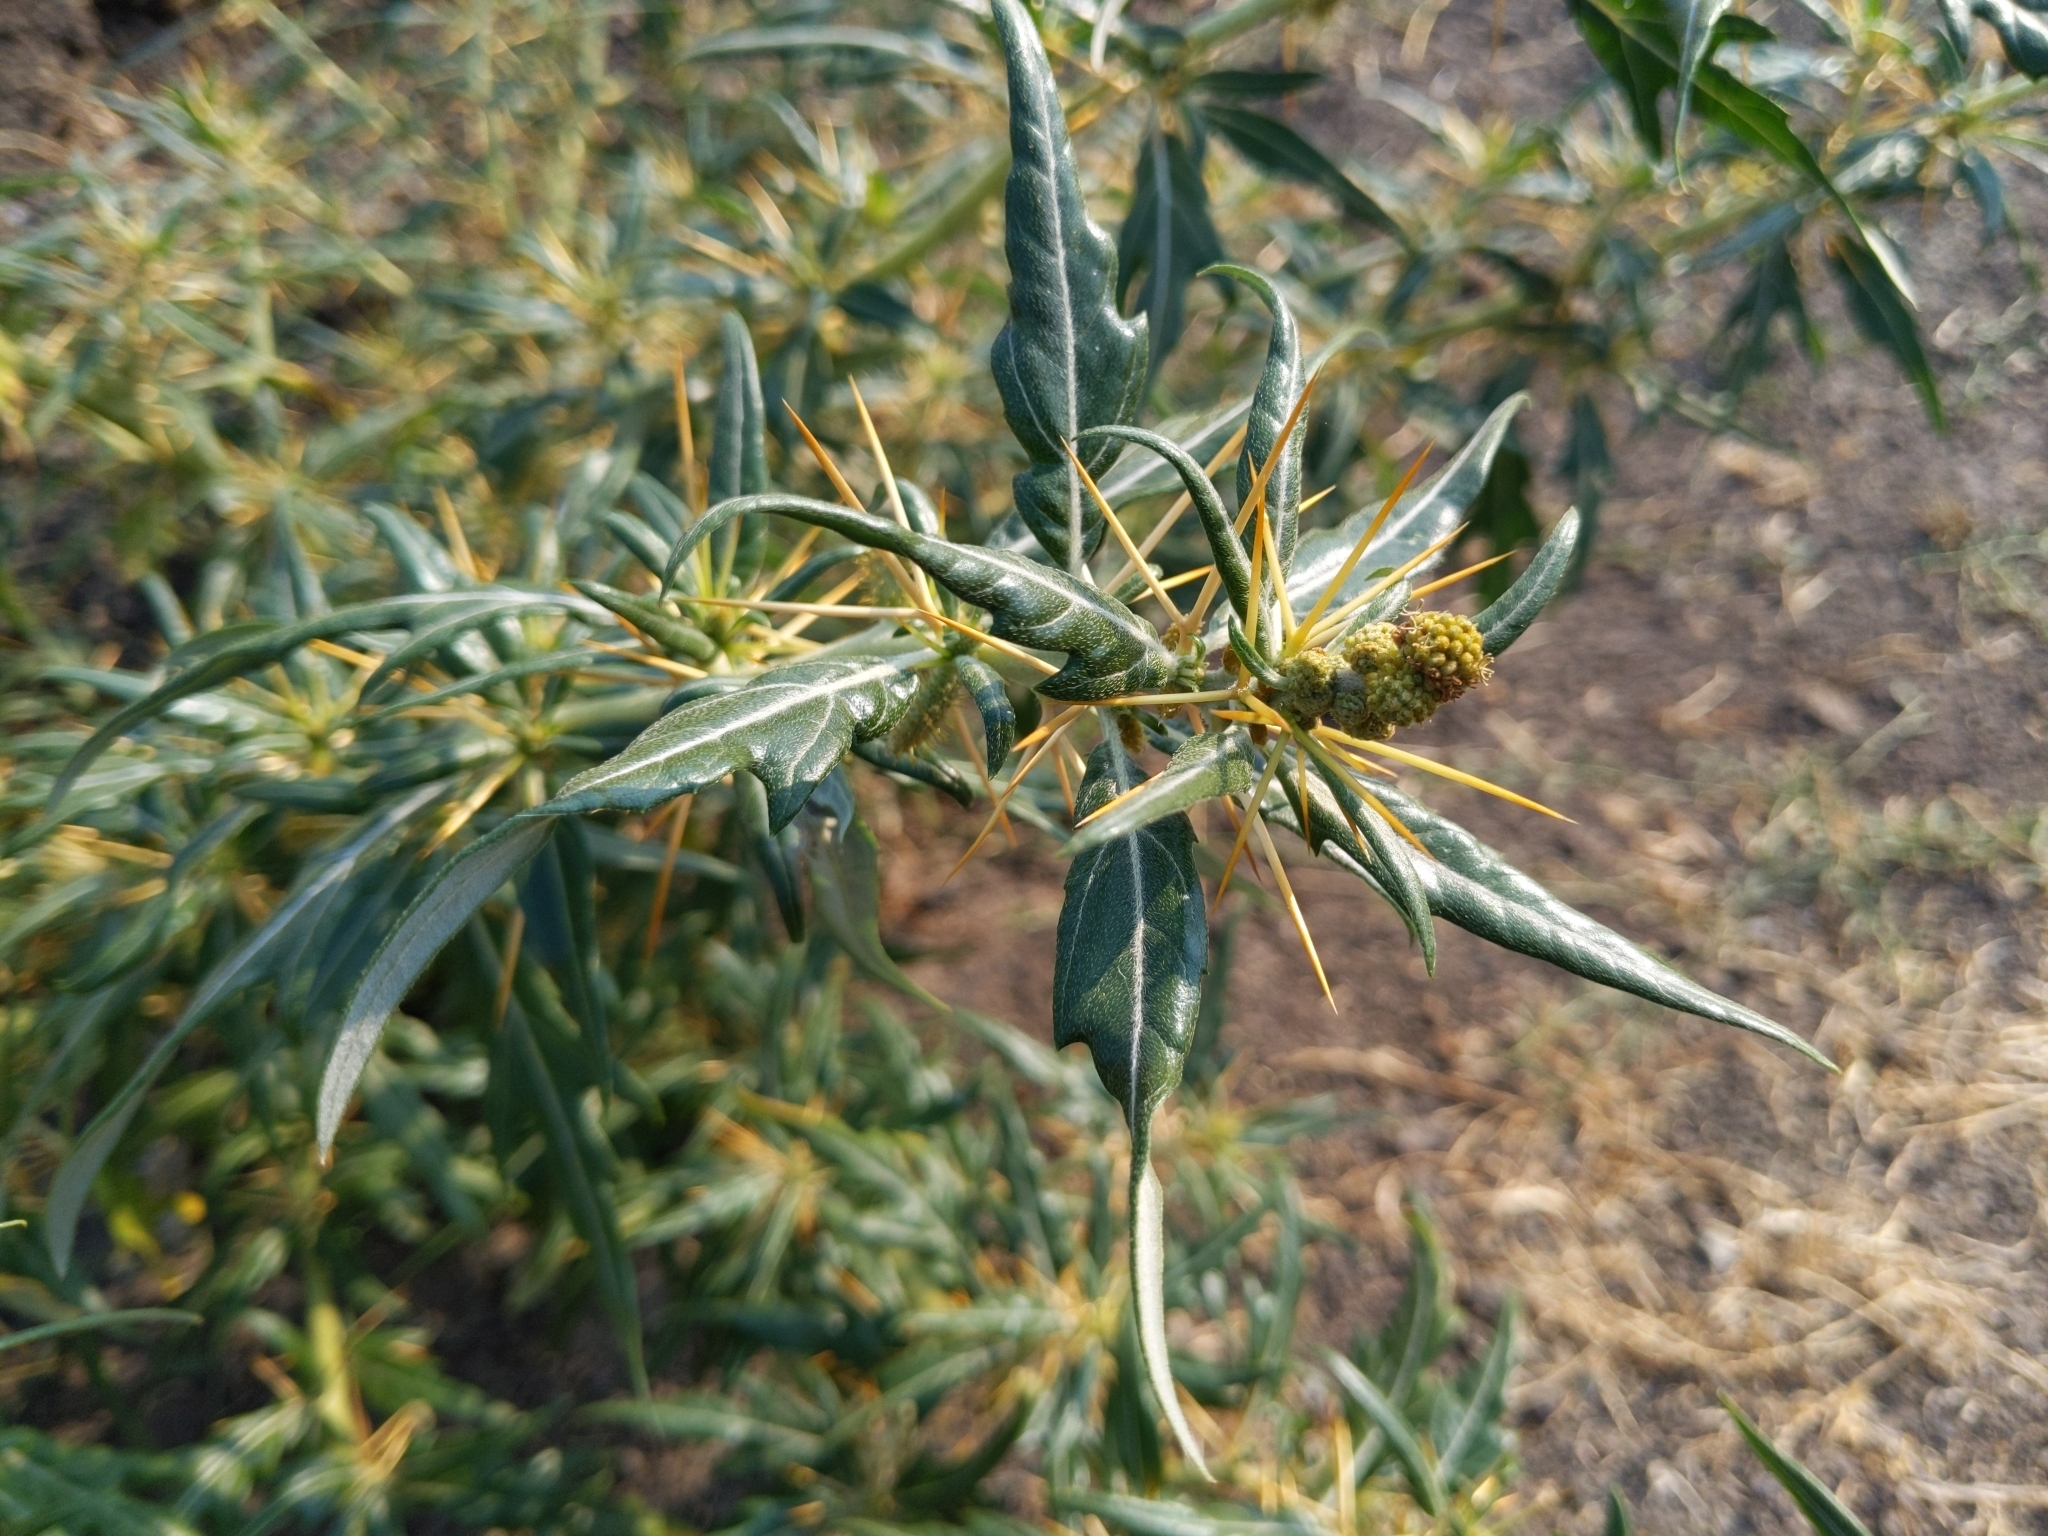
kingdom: Plantae
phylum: Tracheophyta
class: Magnoliopsida
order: Asterales
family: Asteraceae
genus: Xanthium
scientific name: Xanthium spinosum
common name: Spiny cocklebur
